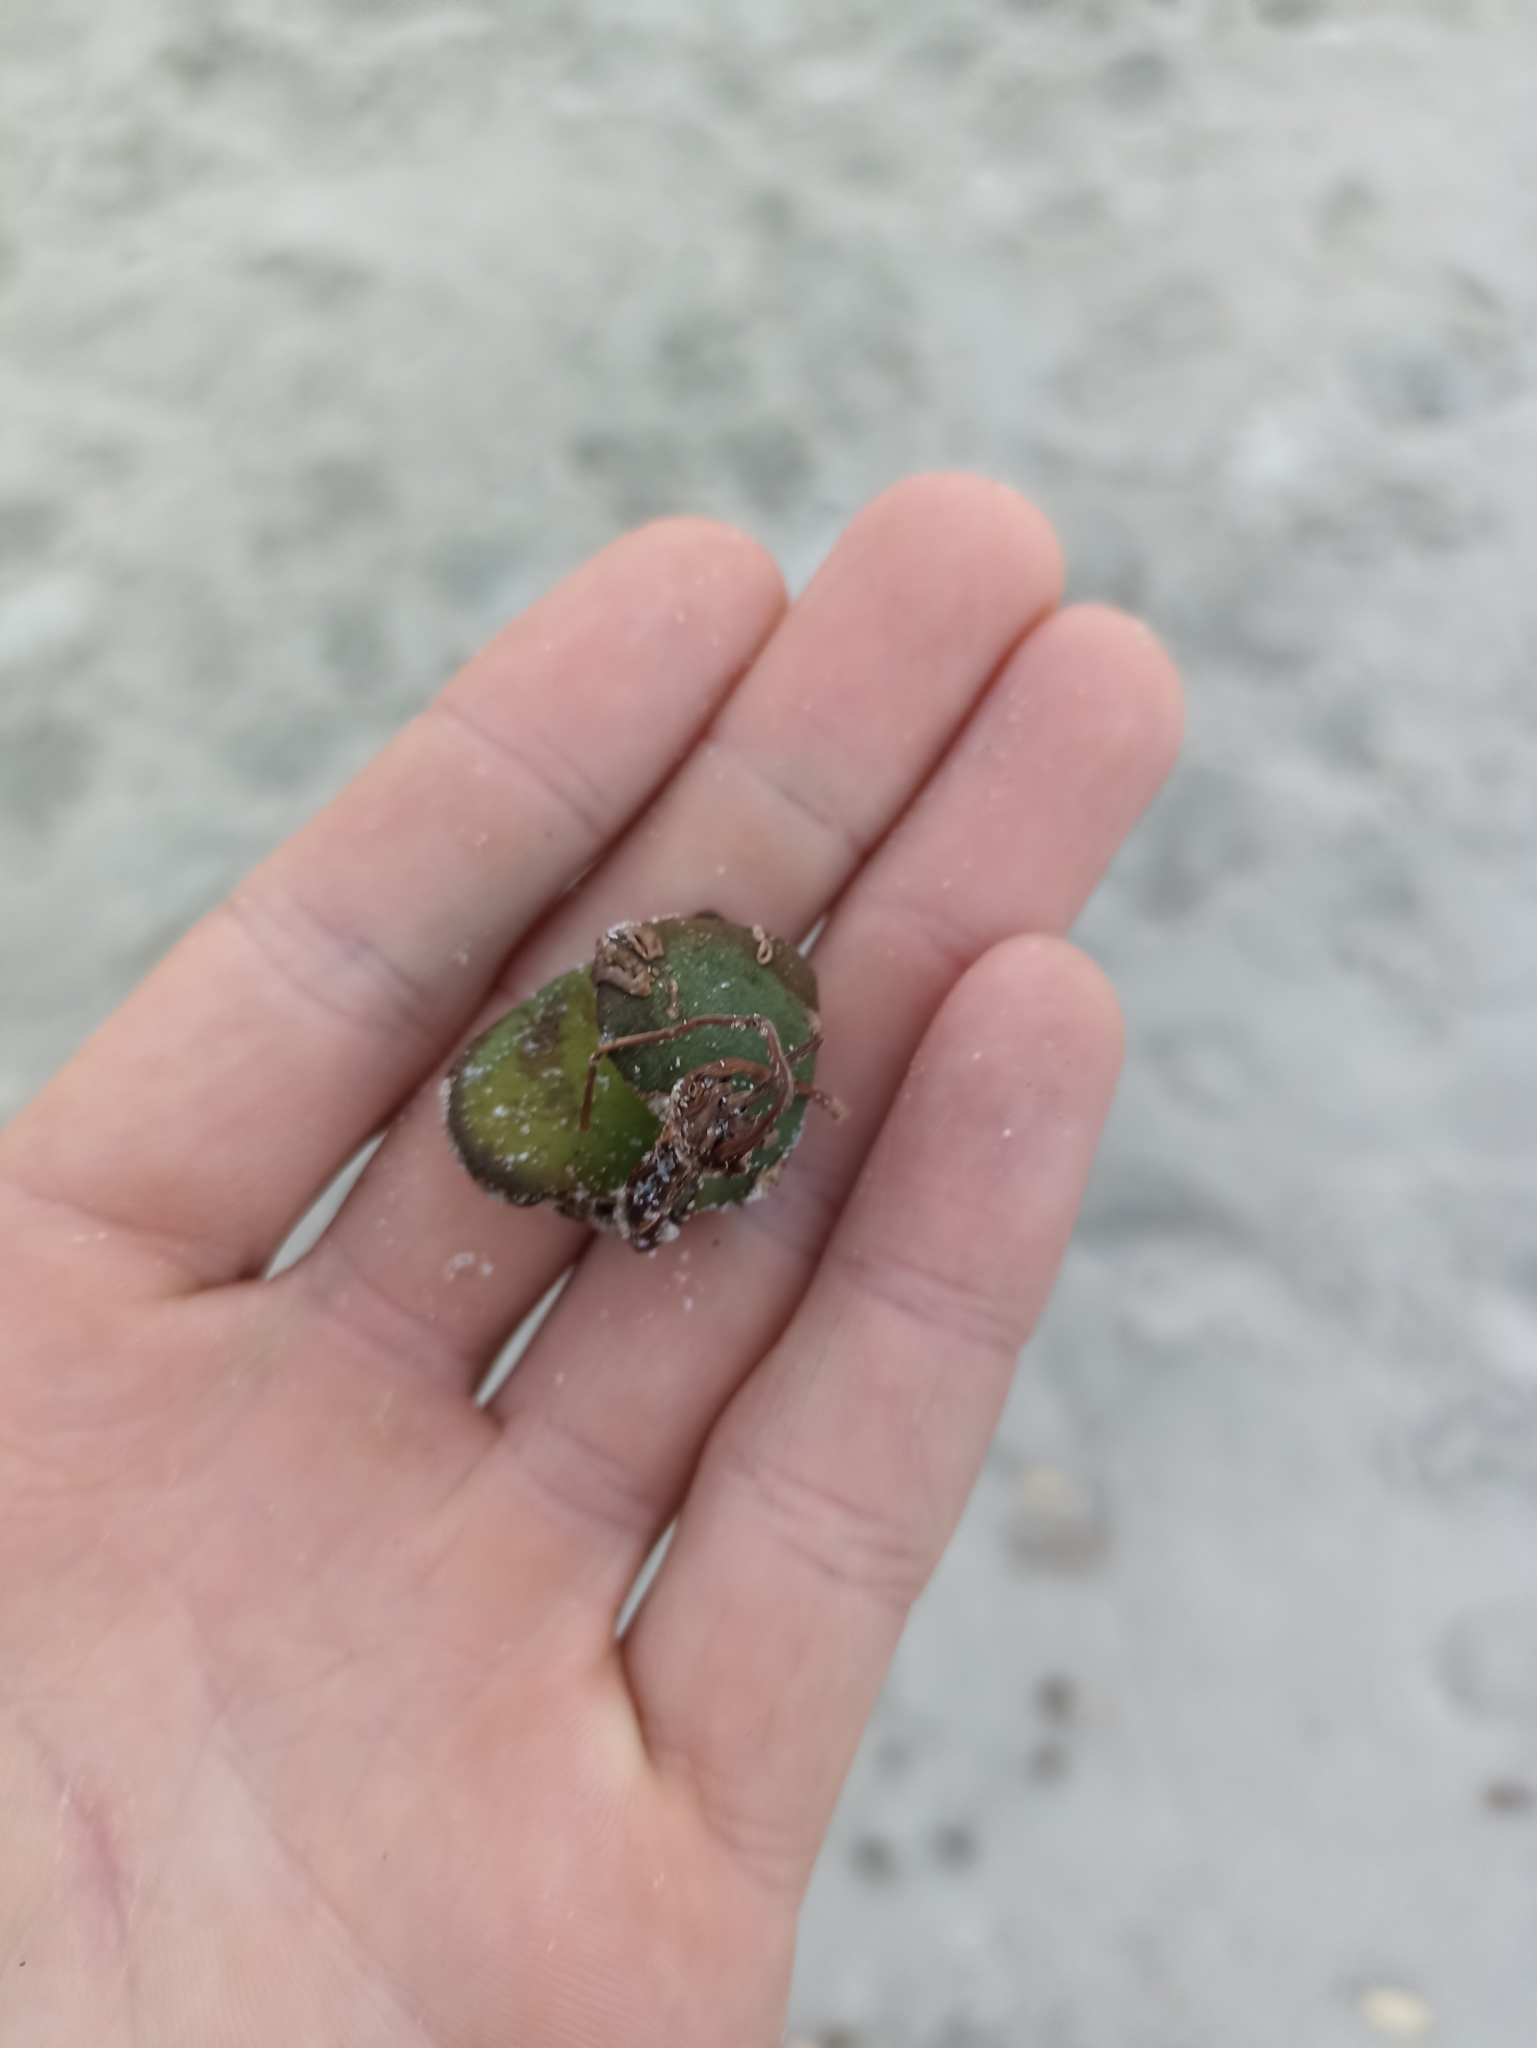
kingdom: Plantae
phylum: Tracheophyta
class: Magnoliopsida
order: Lamiales
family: Acanthaceae
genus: Avicennia
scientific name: Avicennia marina
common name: Gray mangrove
